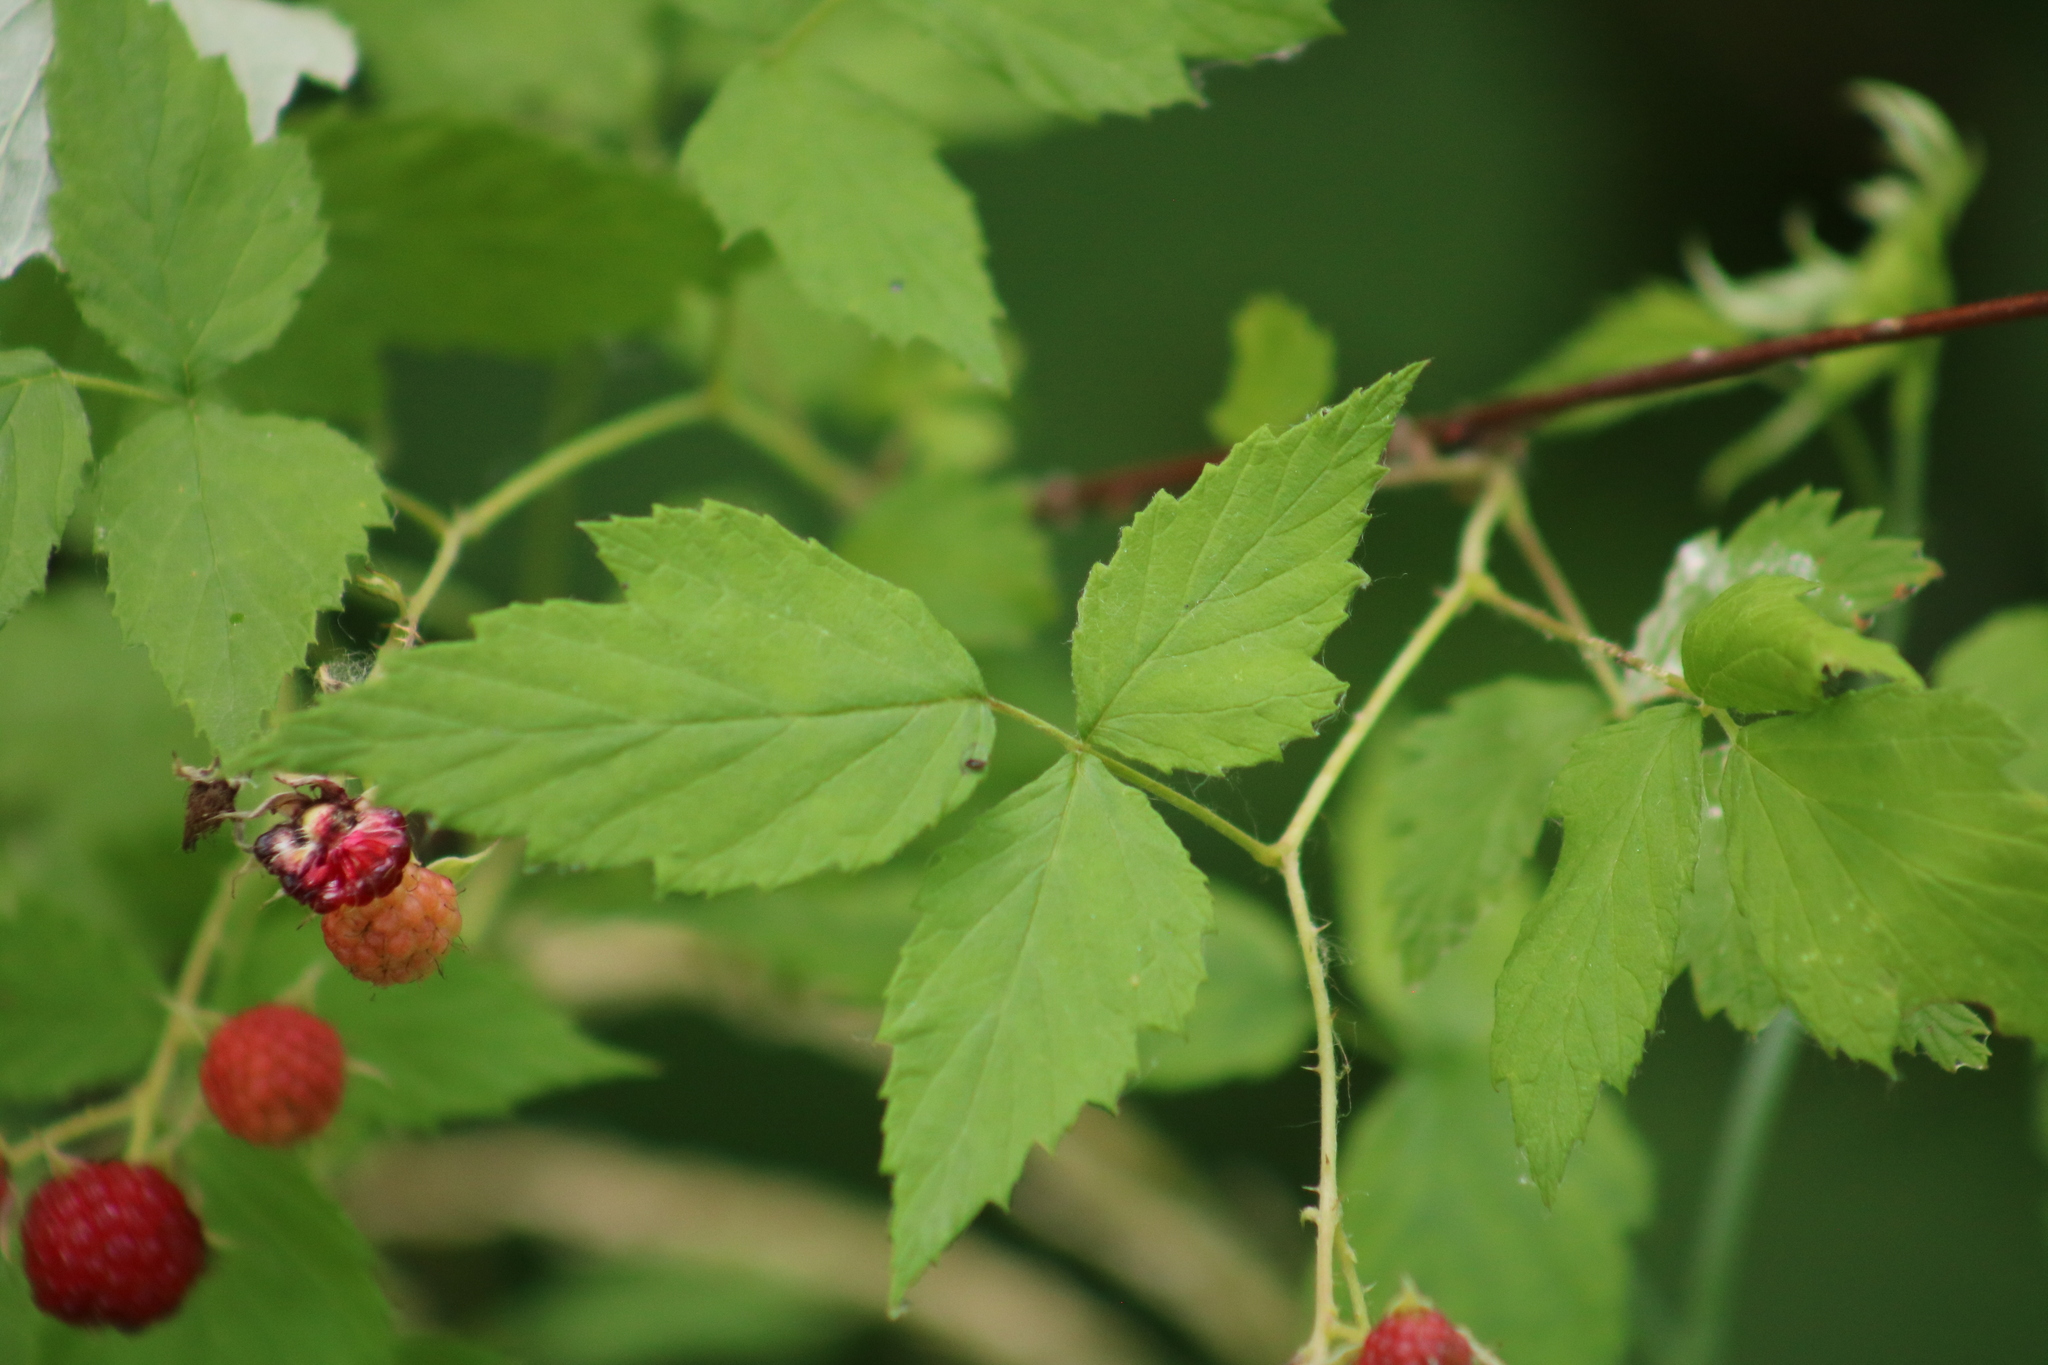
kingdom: Plantae
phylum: Tracheophyta
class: Magnoliopsida
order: Rosales
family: Rosaceae
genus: Rubus
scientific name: Rubus occidentalis
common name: Black raspberry
